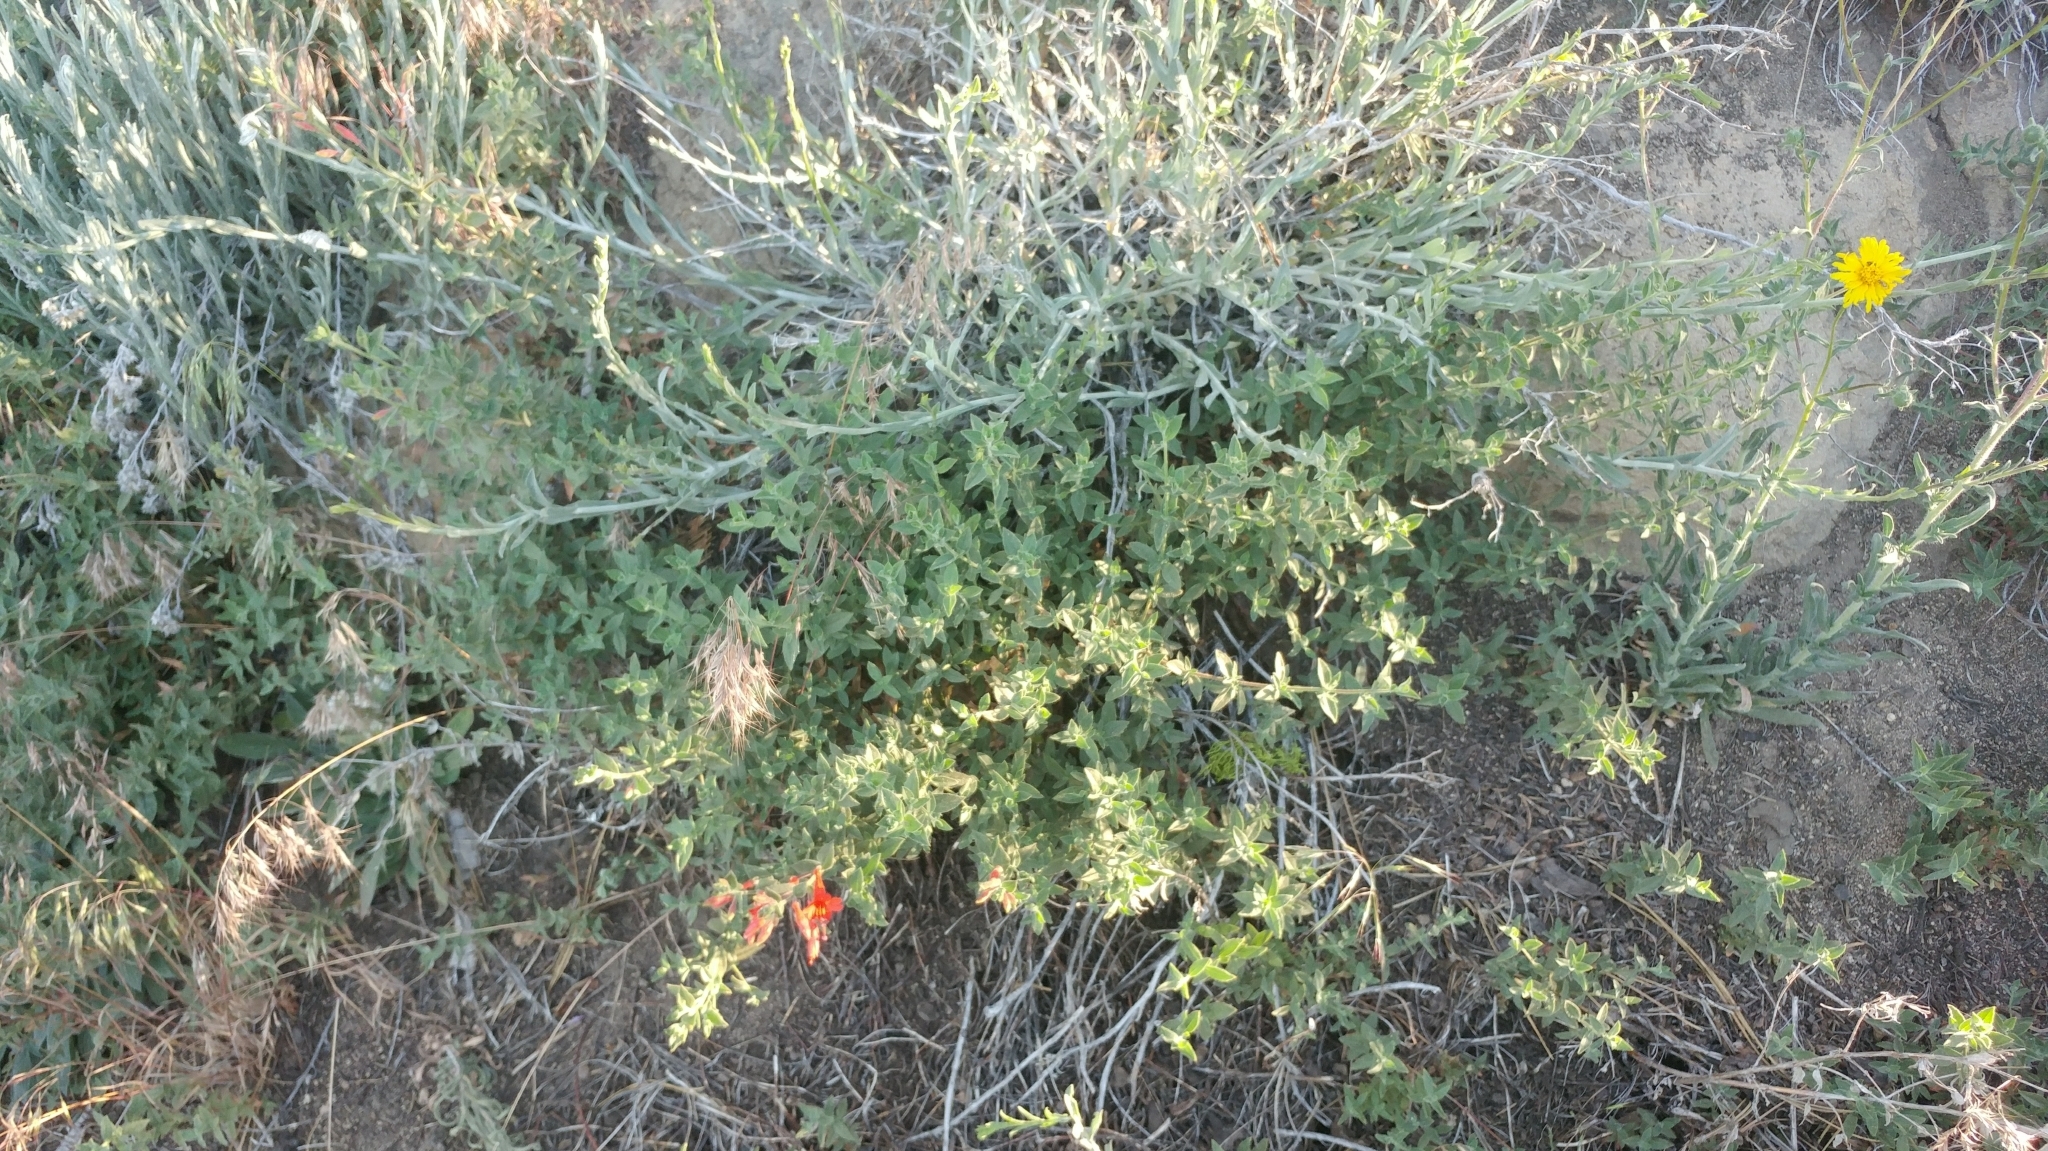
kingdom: Plantae
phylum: Tracheophyta
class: Magnoliopsida
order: Asterales
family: Asteraceae
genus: Madia
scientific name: Madia elegans
